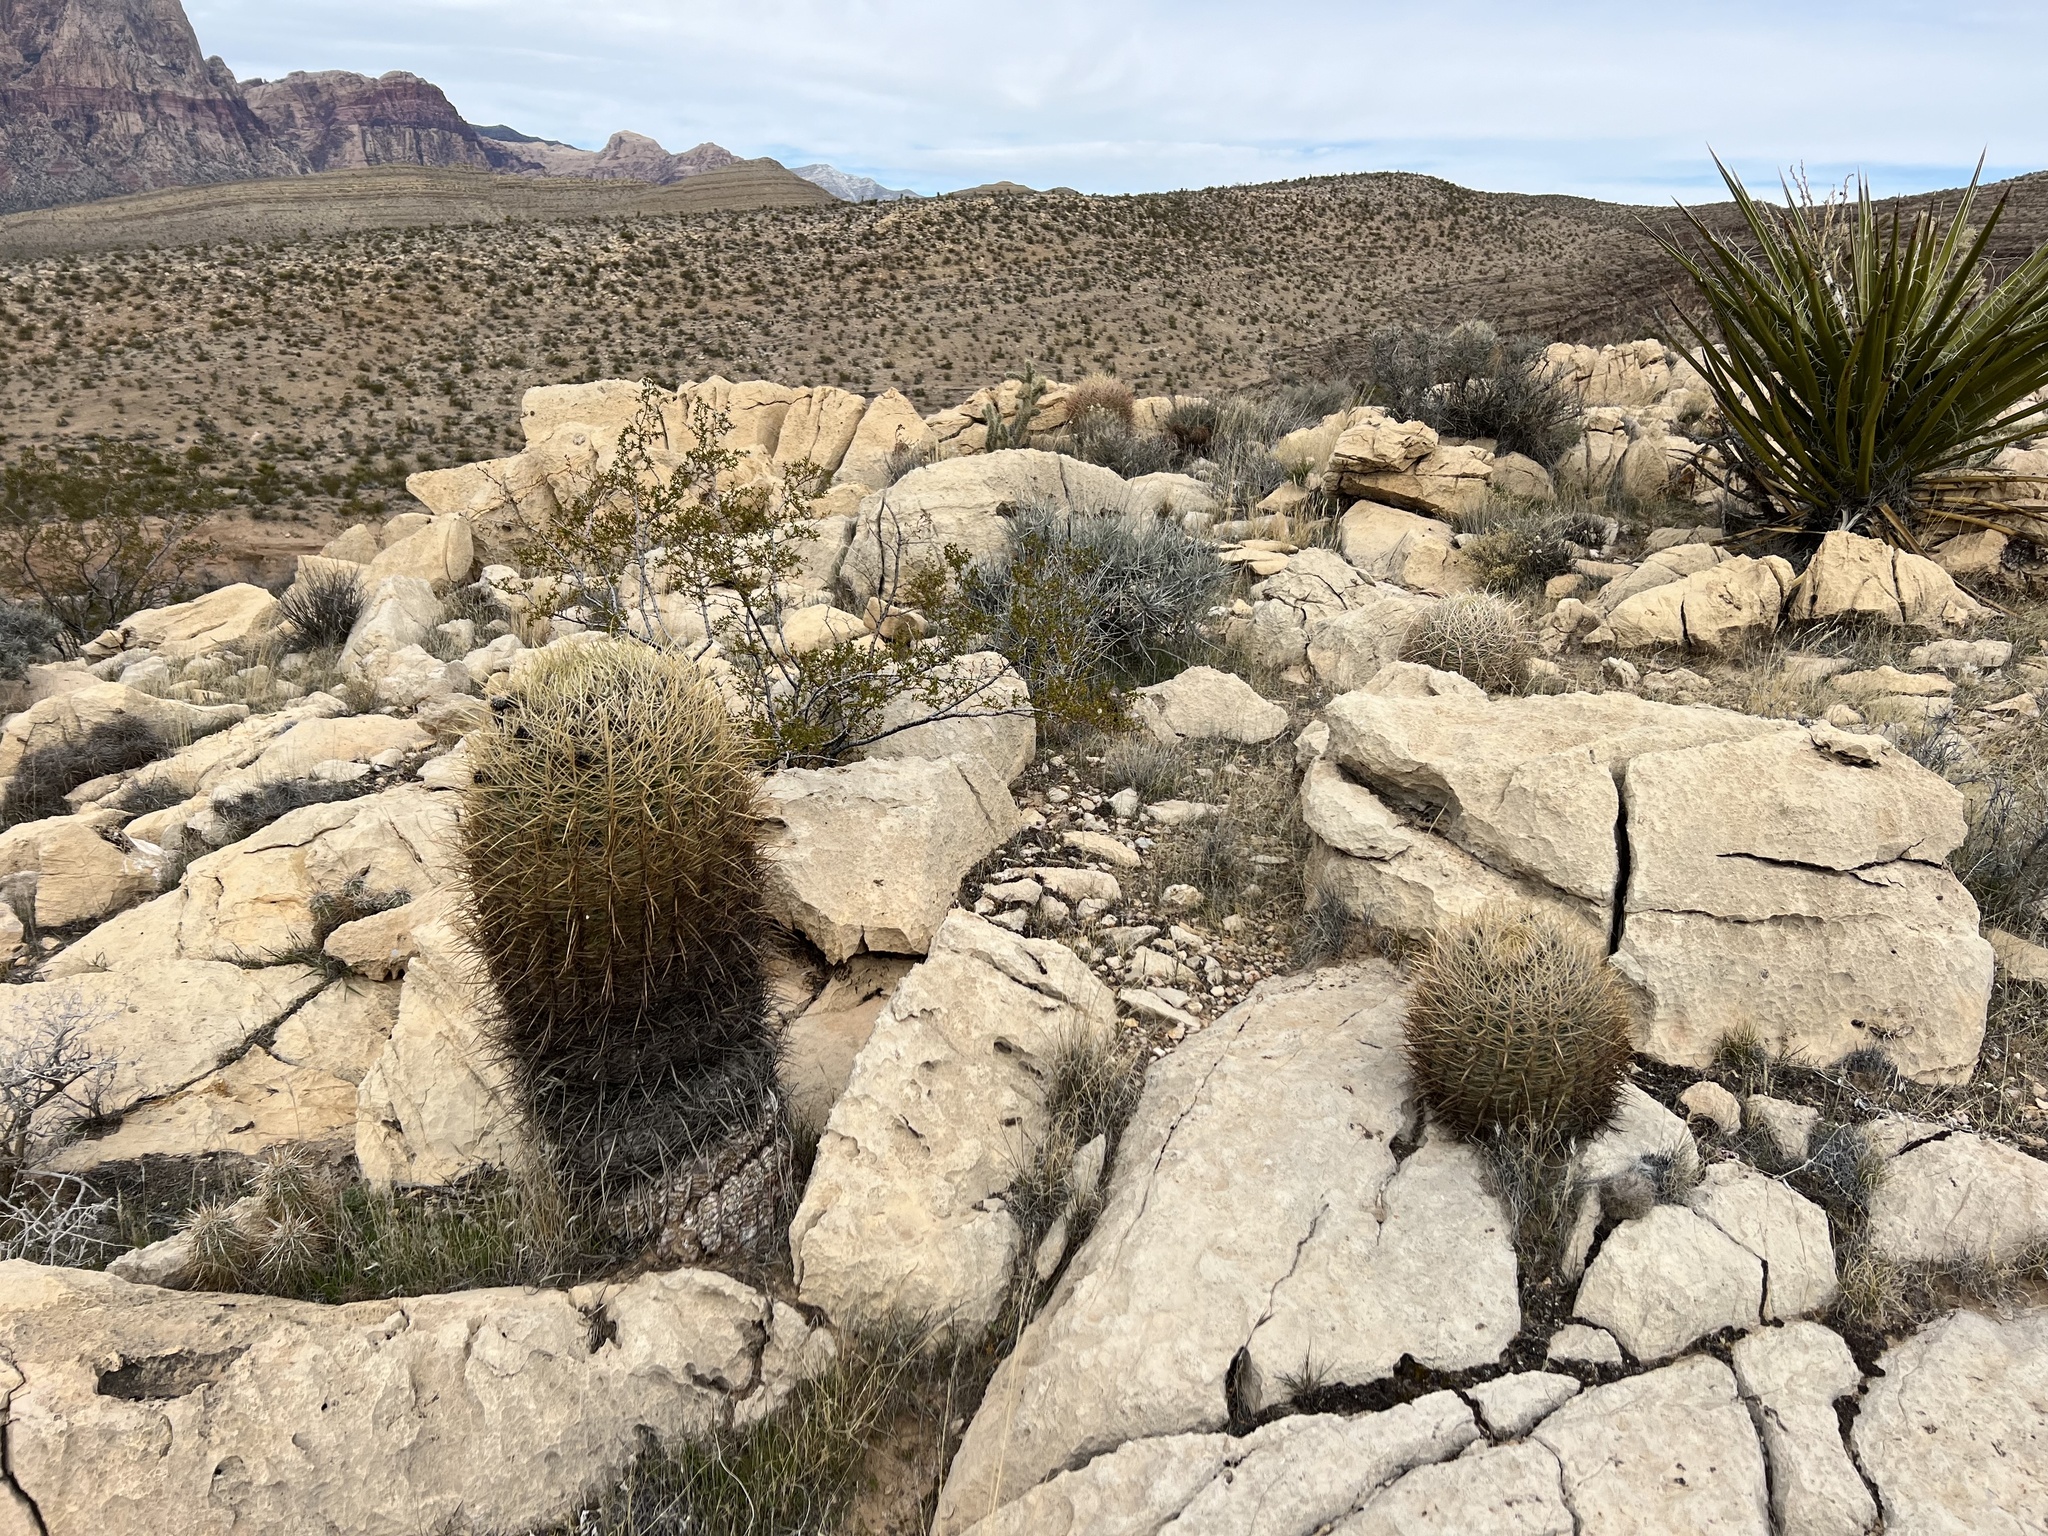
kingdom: Plantae
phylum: Tracheophyta
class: Magnoliopsida
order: Caryophyllales
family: Cactaceae
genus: Ferocactus
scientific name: Ferocactus cylindraceus
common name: California barrel cactus
